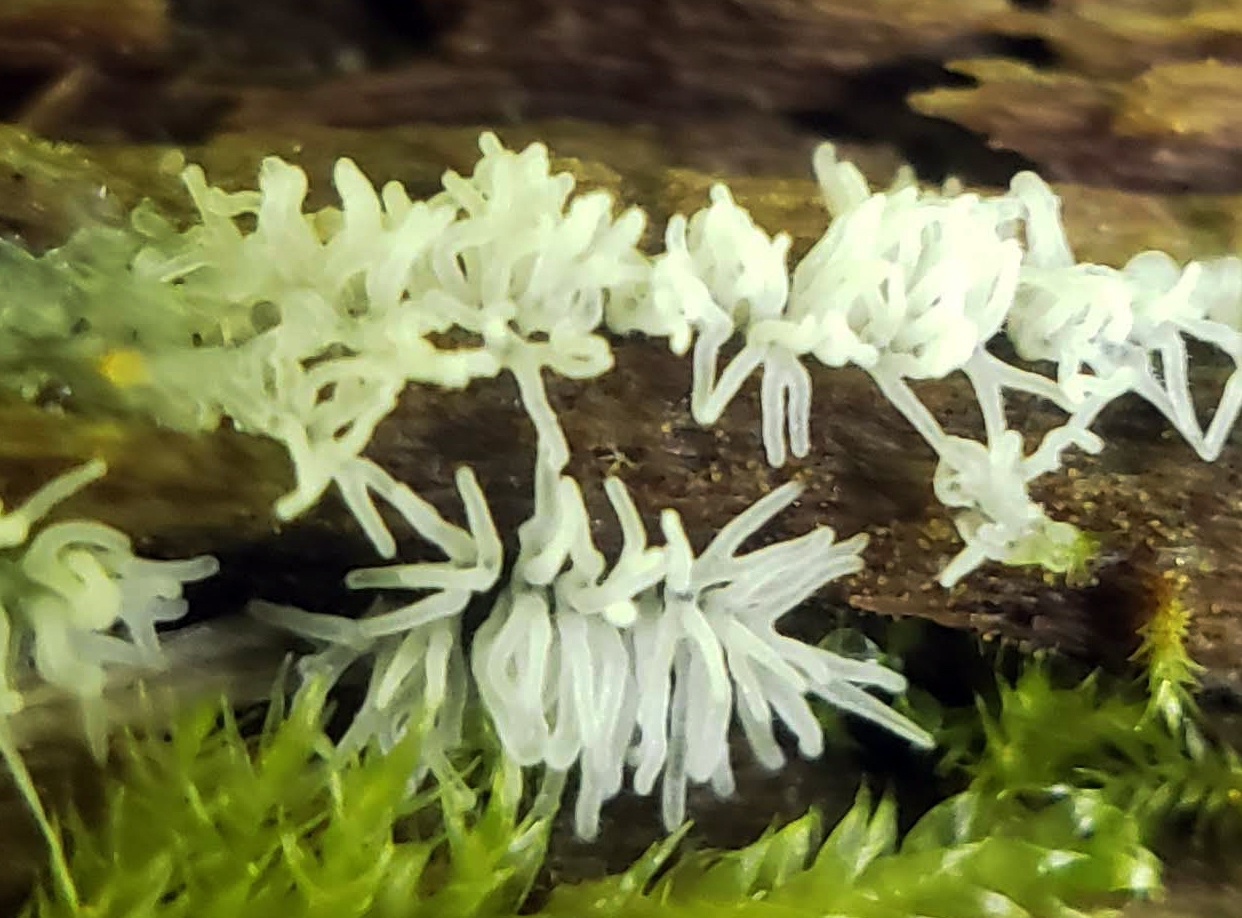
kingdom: Protozoa
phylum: Mycetozoa
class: Protosteliomycetes
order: Ceratiomyxales
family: Ceratiomyxaceae
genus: Ceratiomyxa
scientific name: Ceratiomyxa fruticulosa
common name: Honeycomb coral slime mold
